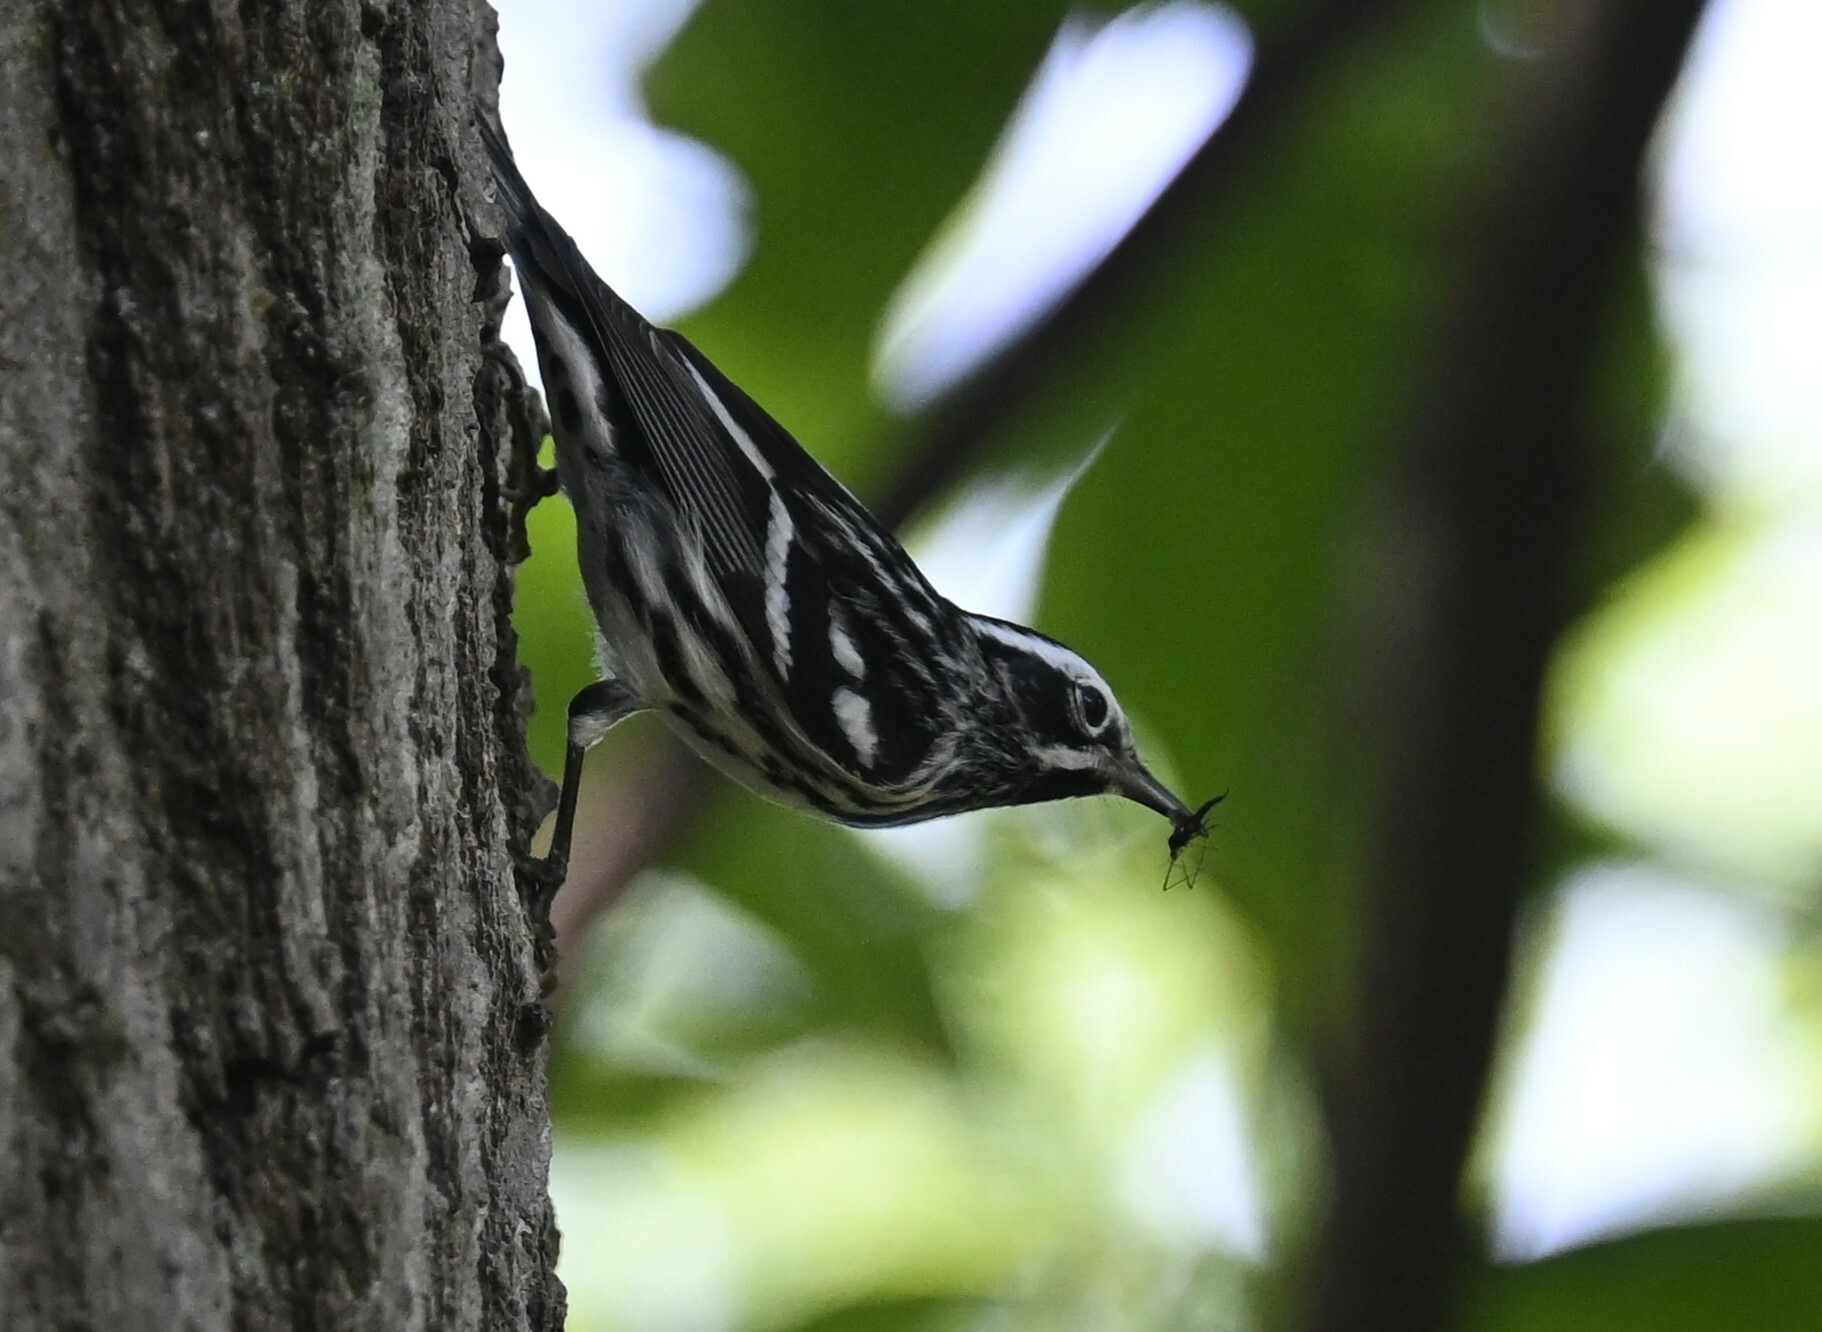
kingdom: Animalia
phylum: Chordata
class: Aves
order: Passeriformes
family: Parulidae
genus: Mniotilta
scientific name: Mniotilta varia
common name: Black-and-white warbler
